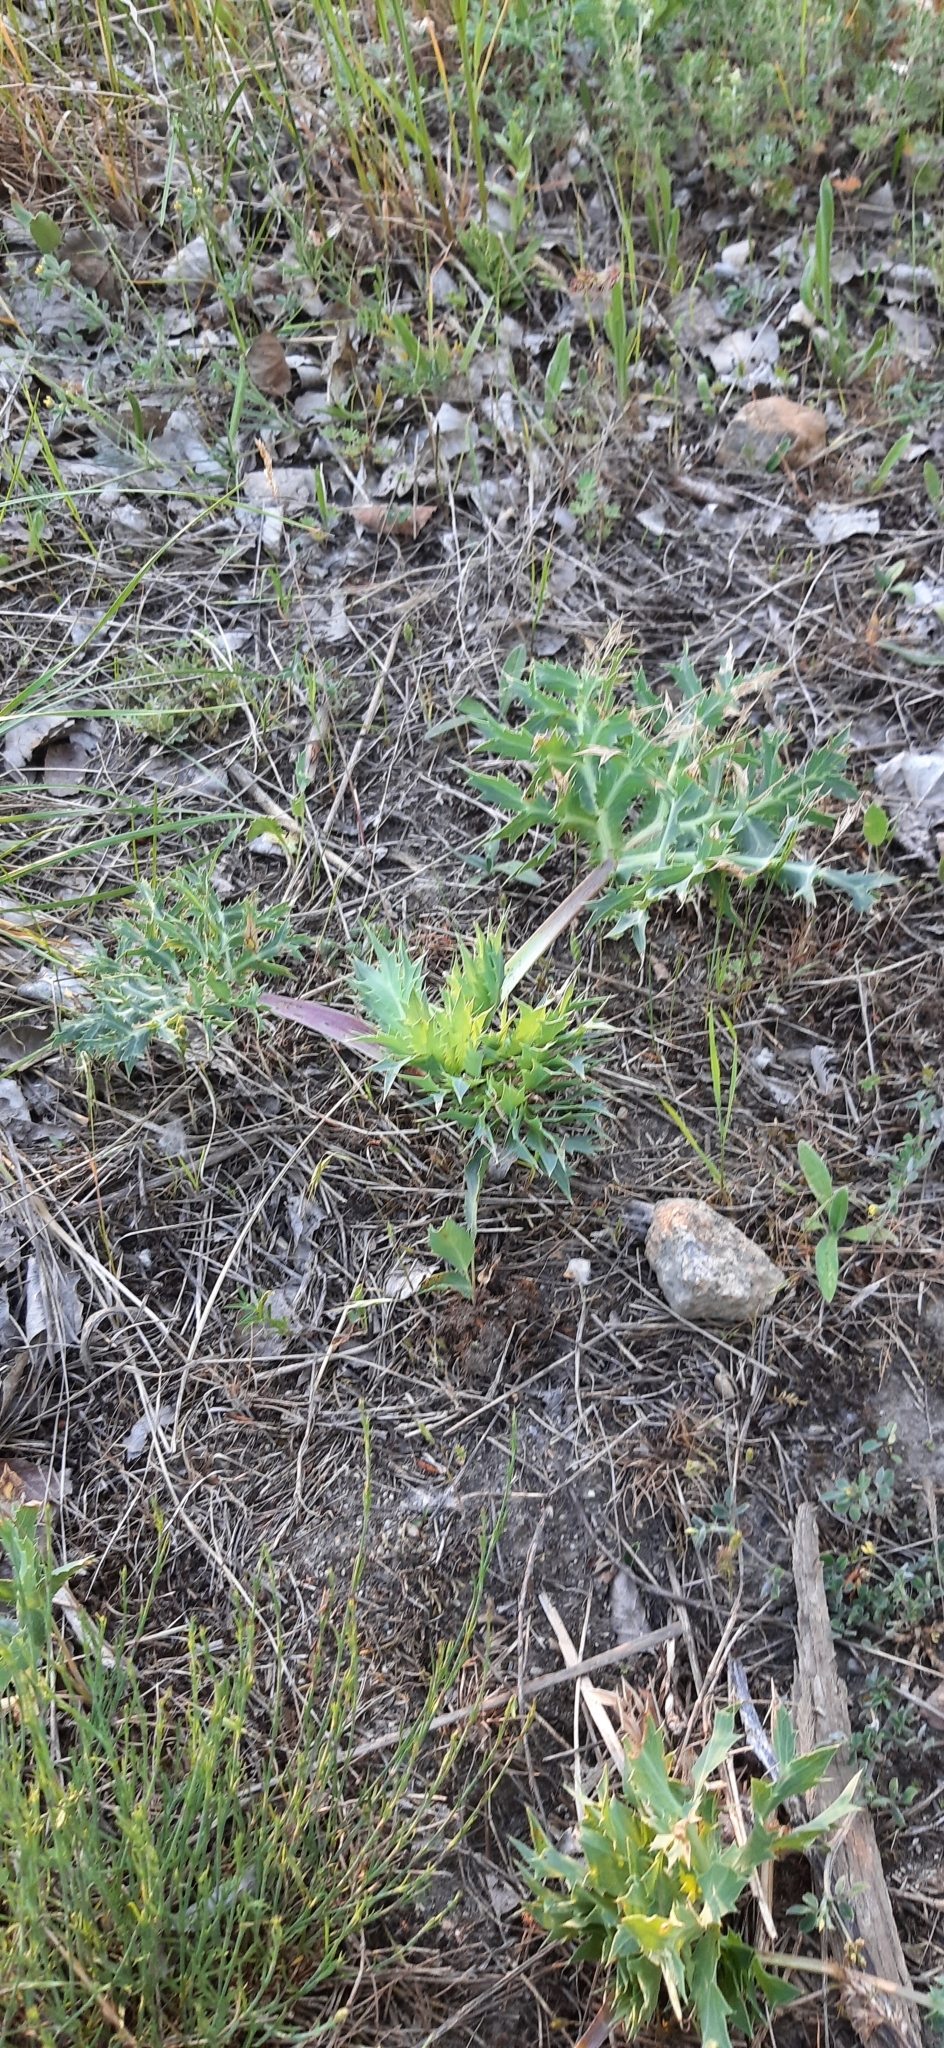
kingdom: Plantae
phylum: Tracheophyta
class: Magnoliopsida
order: Apiales
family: Apiaceae
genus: Eryngium
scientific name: Eryngium campestre
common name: Field eryngo
